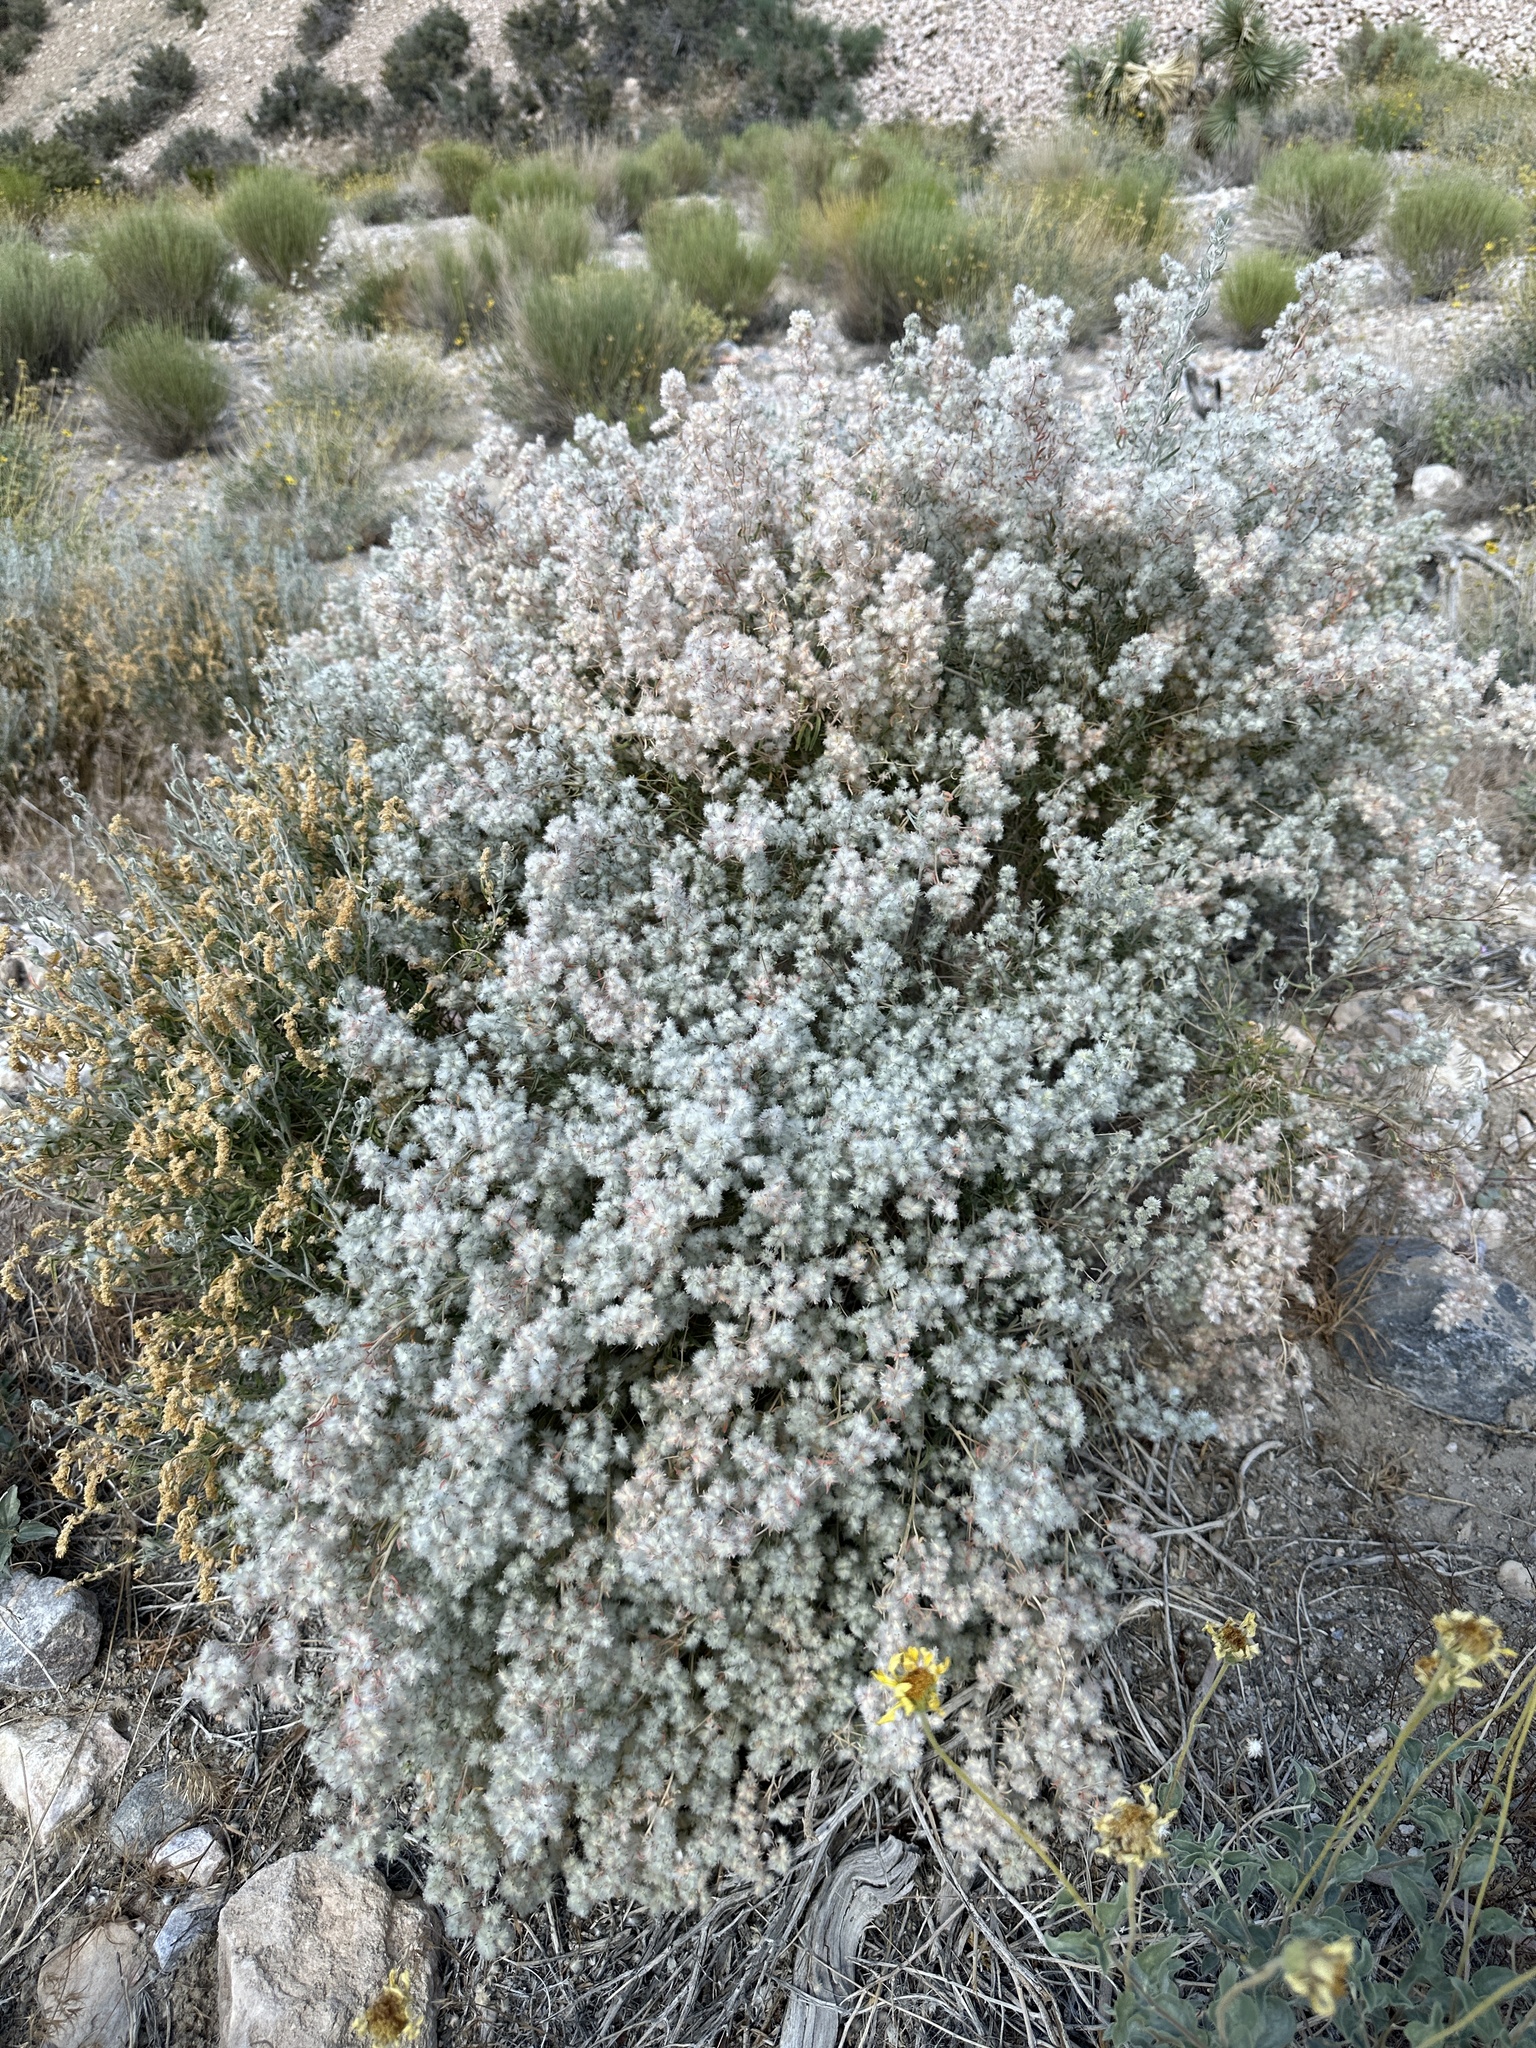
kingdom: Plantae
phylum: Tracheophyta
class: Magnoliopsida
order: Caryophyllales
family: Amaranthaceae
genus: Krascheninnikovia
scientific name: Krascheninnikovia lanata
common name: Winterfat
